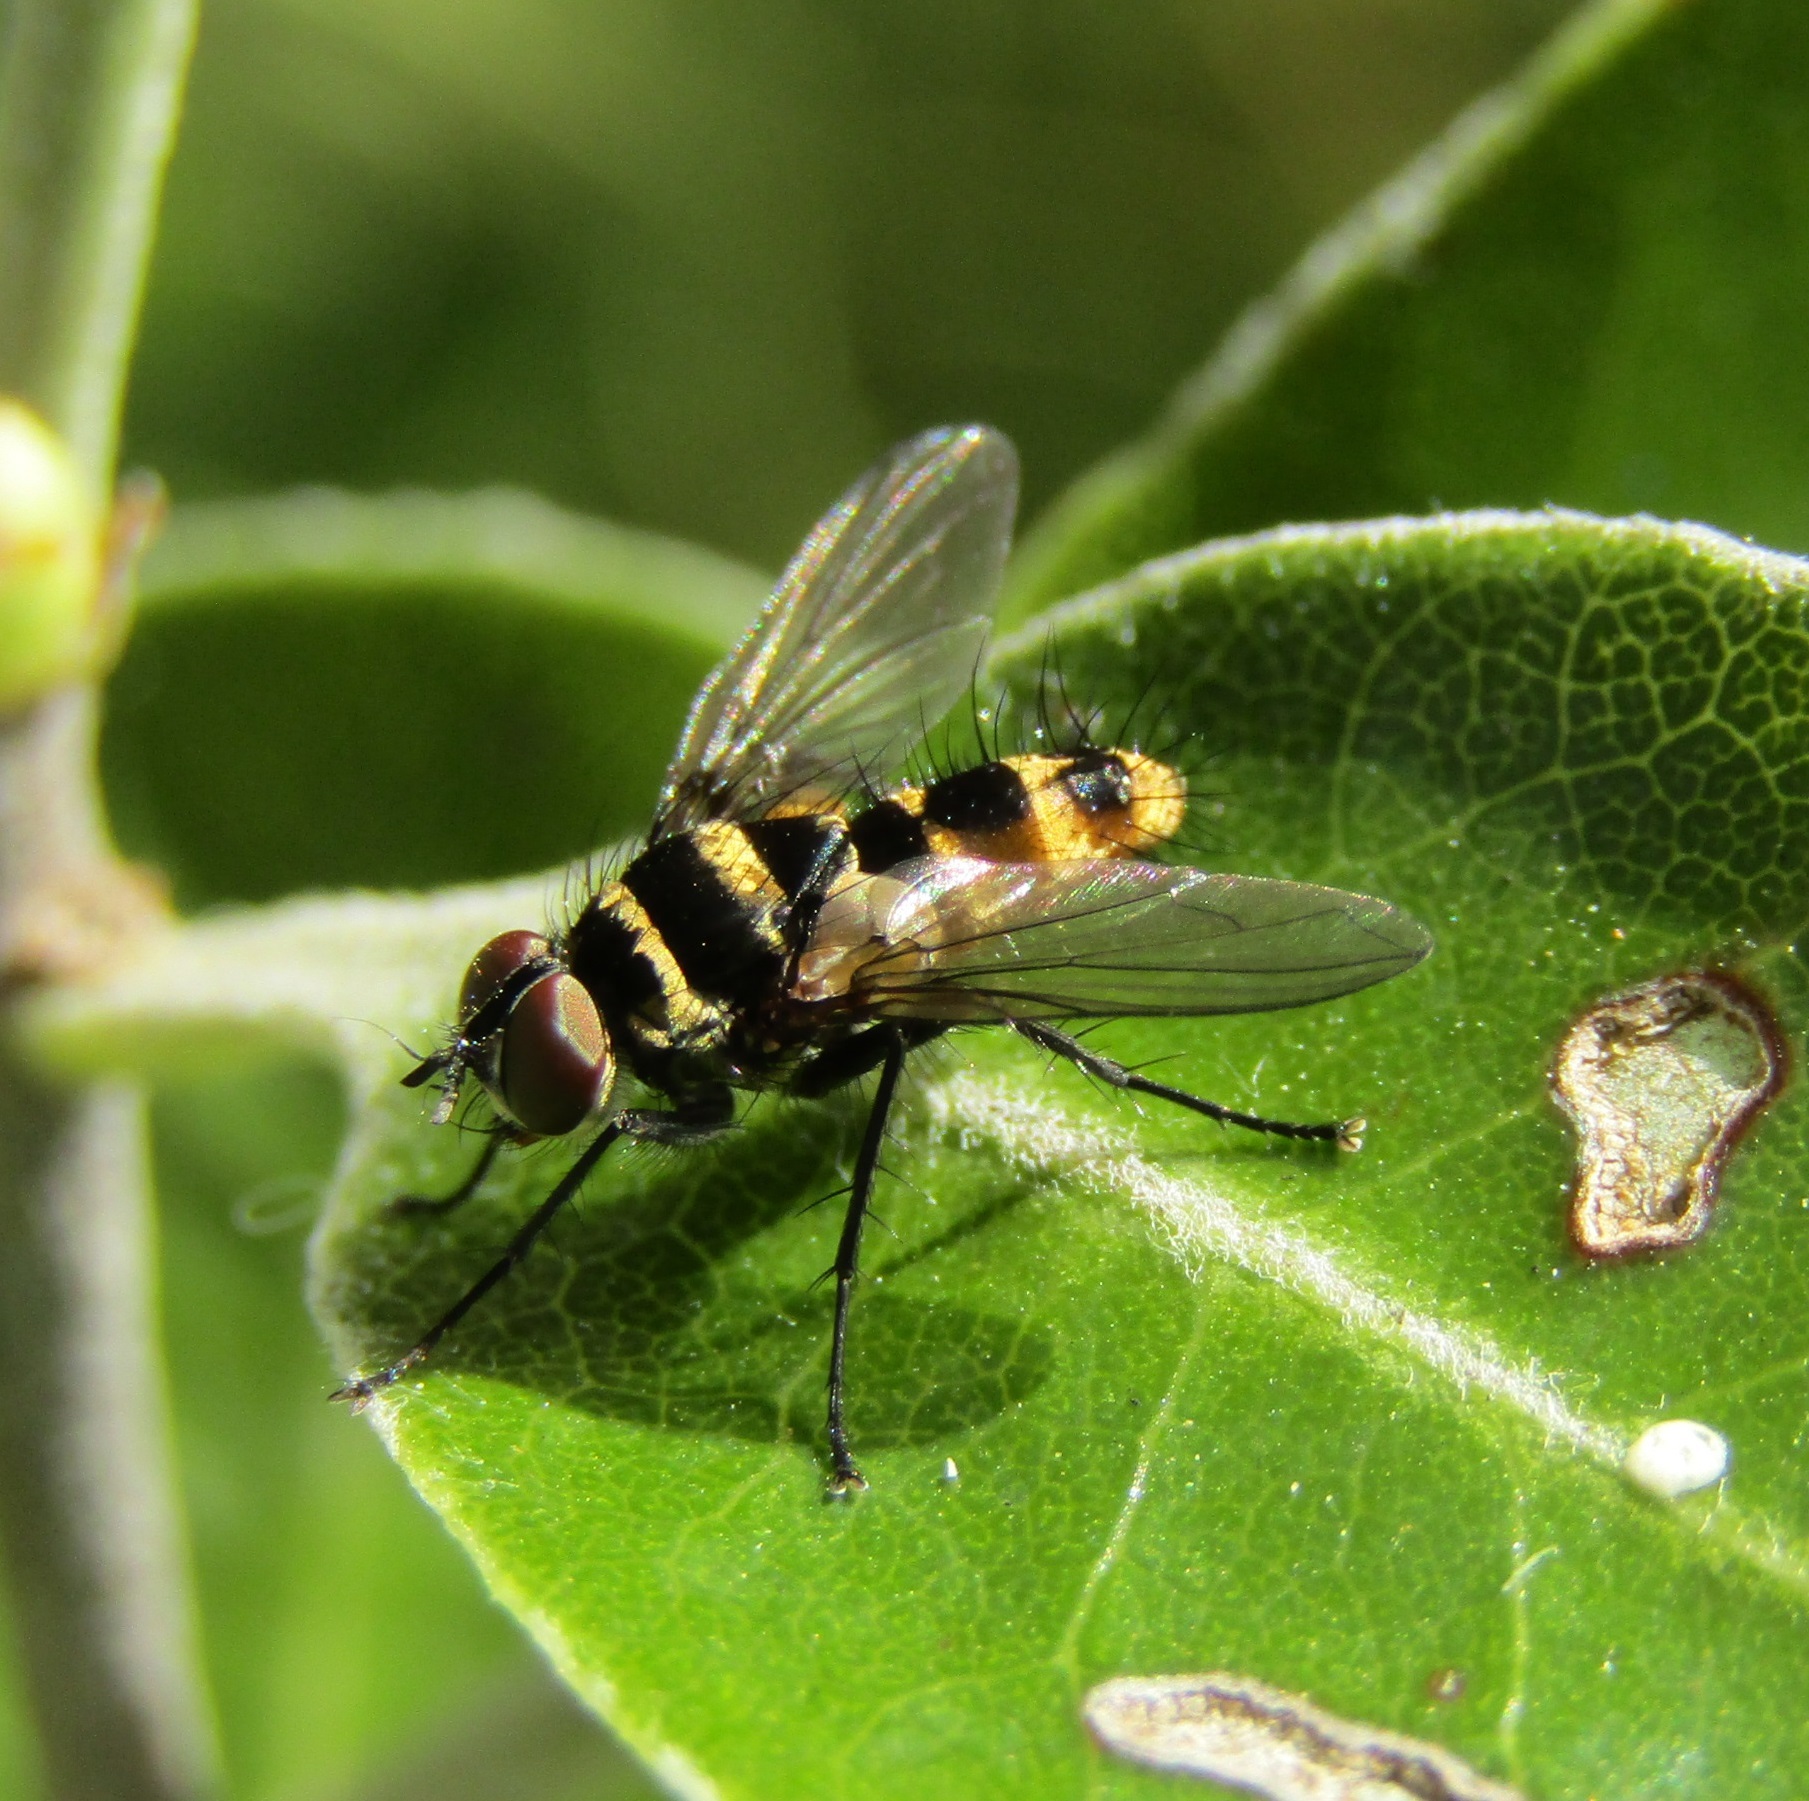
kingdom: Animalia
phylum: Arthropoda
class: Insecta
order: Diptera
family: Tachinidae
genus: Trigonospila
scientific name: Trigonospila brevifacies
